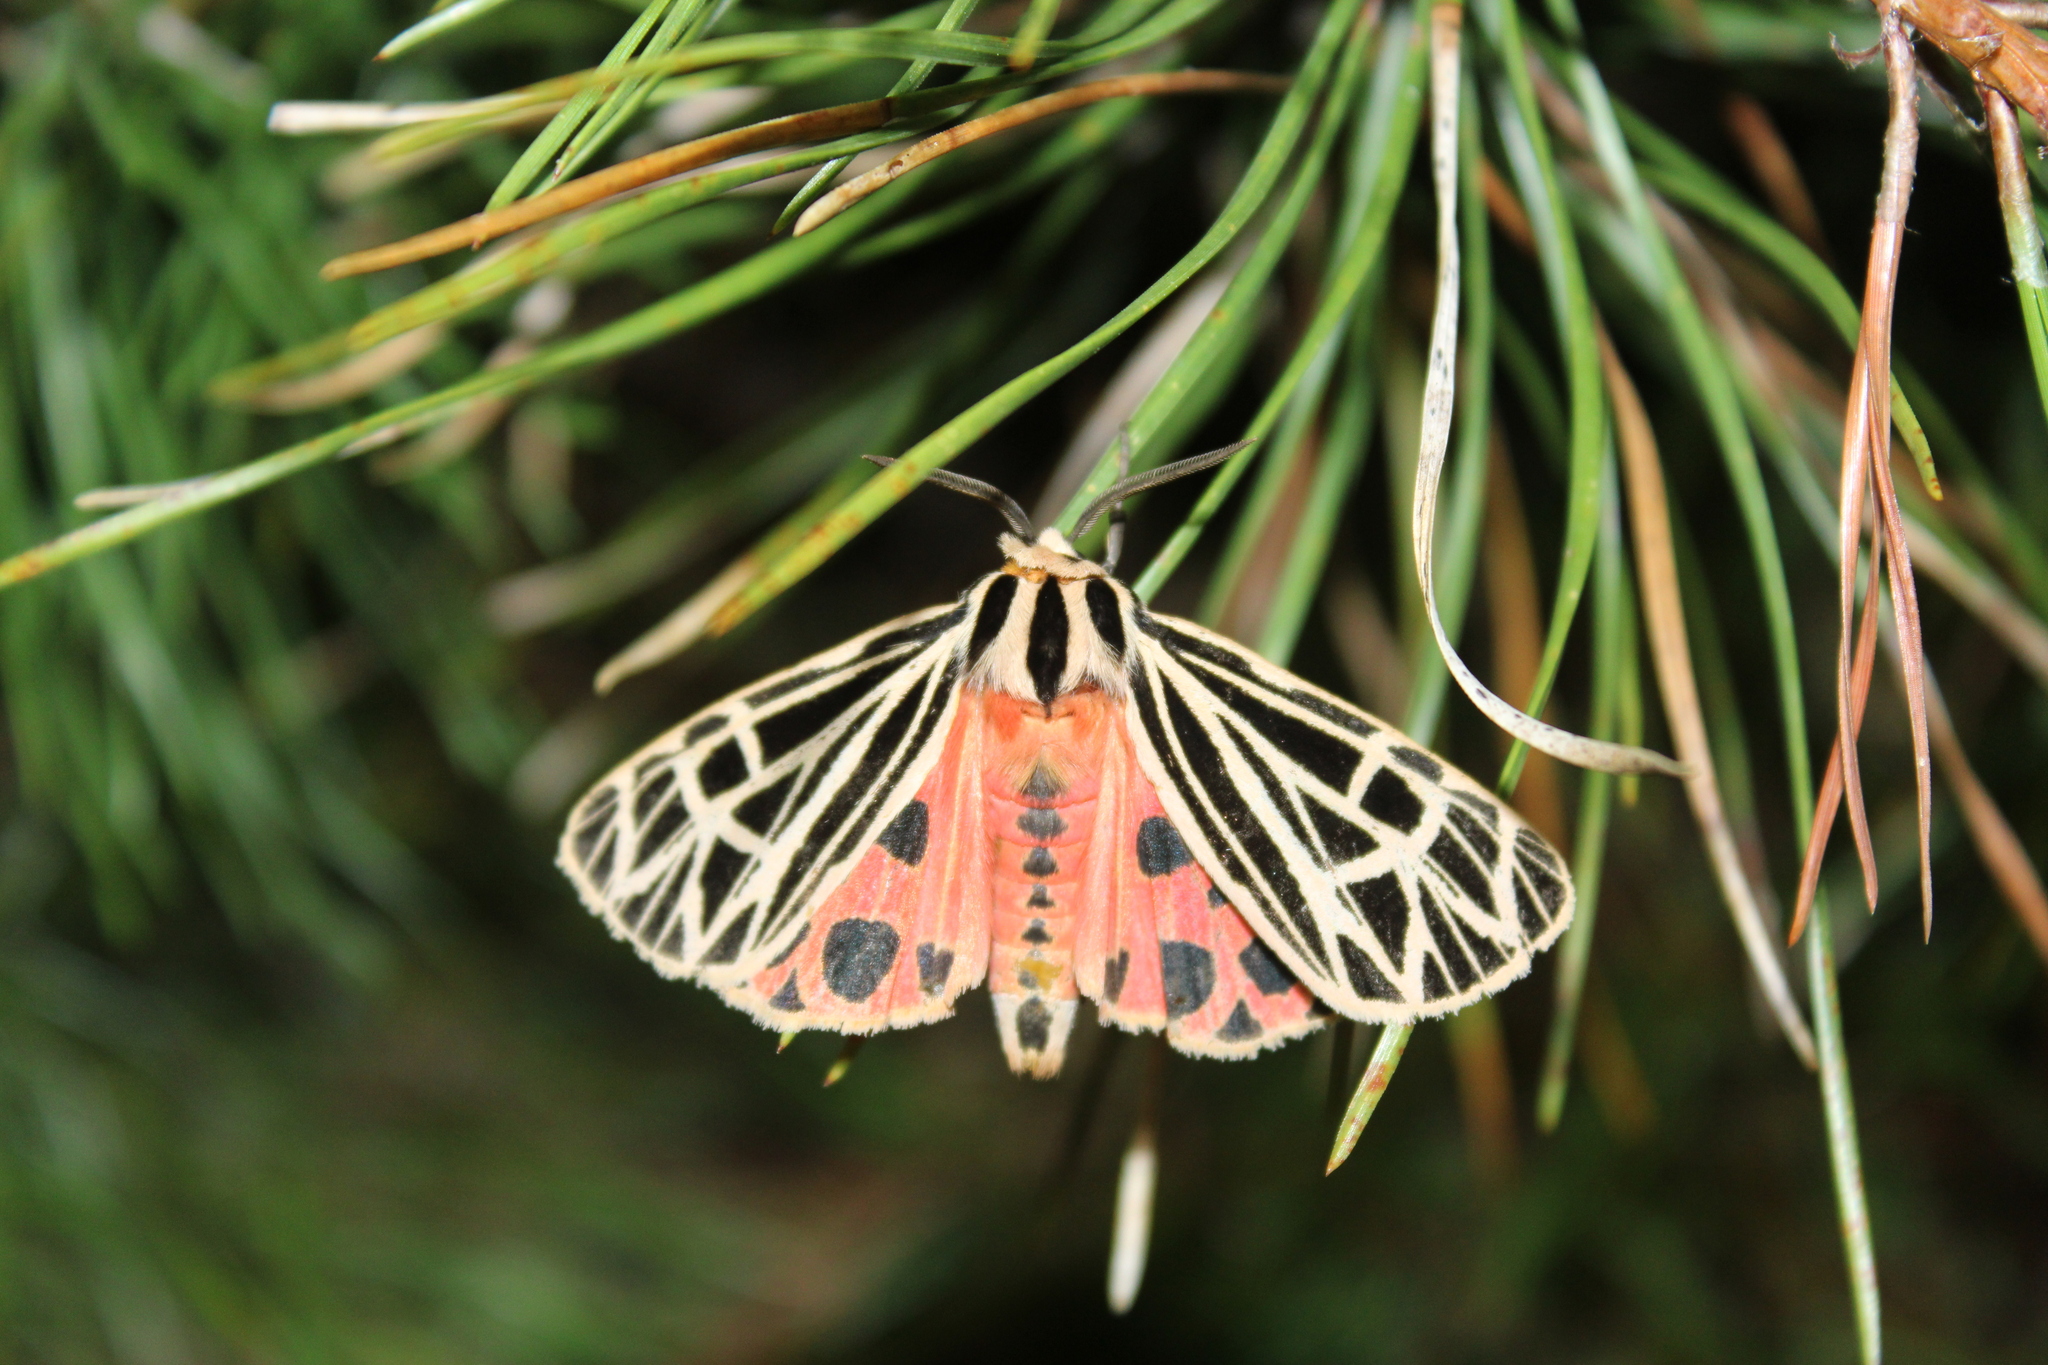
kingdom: Animalia
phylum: Arthropoda
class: Insecta
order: Lepidoptera
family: Erebidae
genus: Grammia
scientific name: Grammia virgo
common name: Virgin tiger moth
